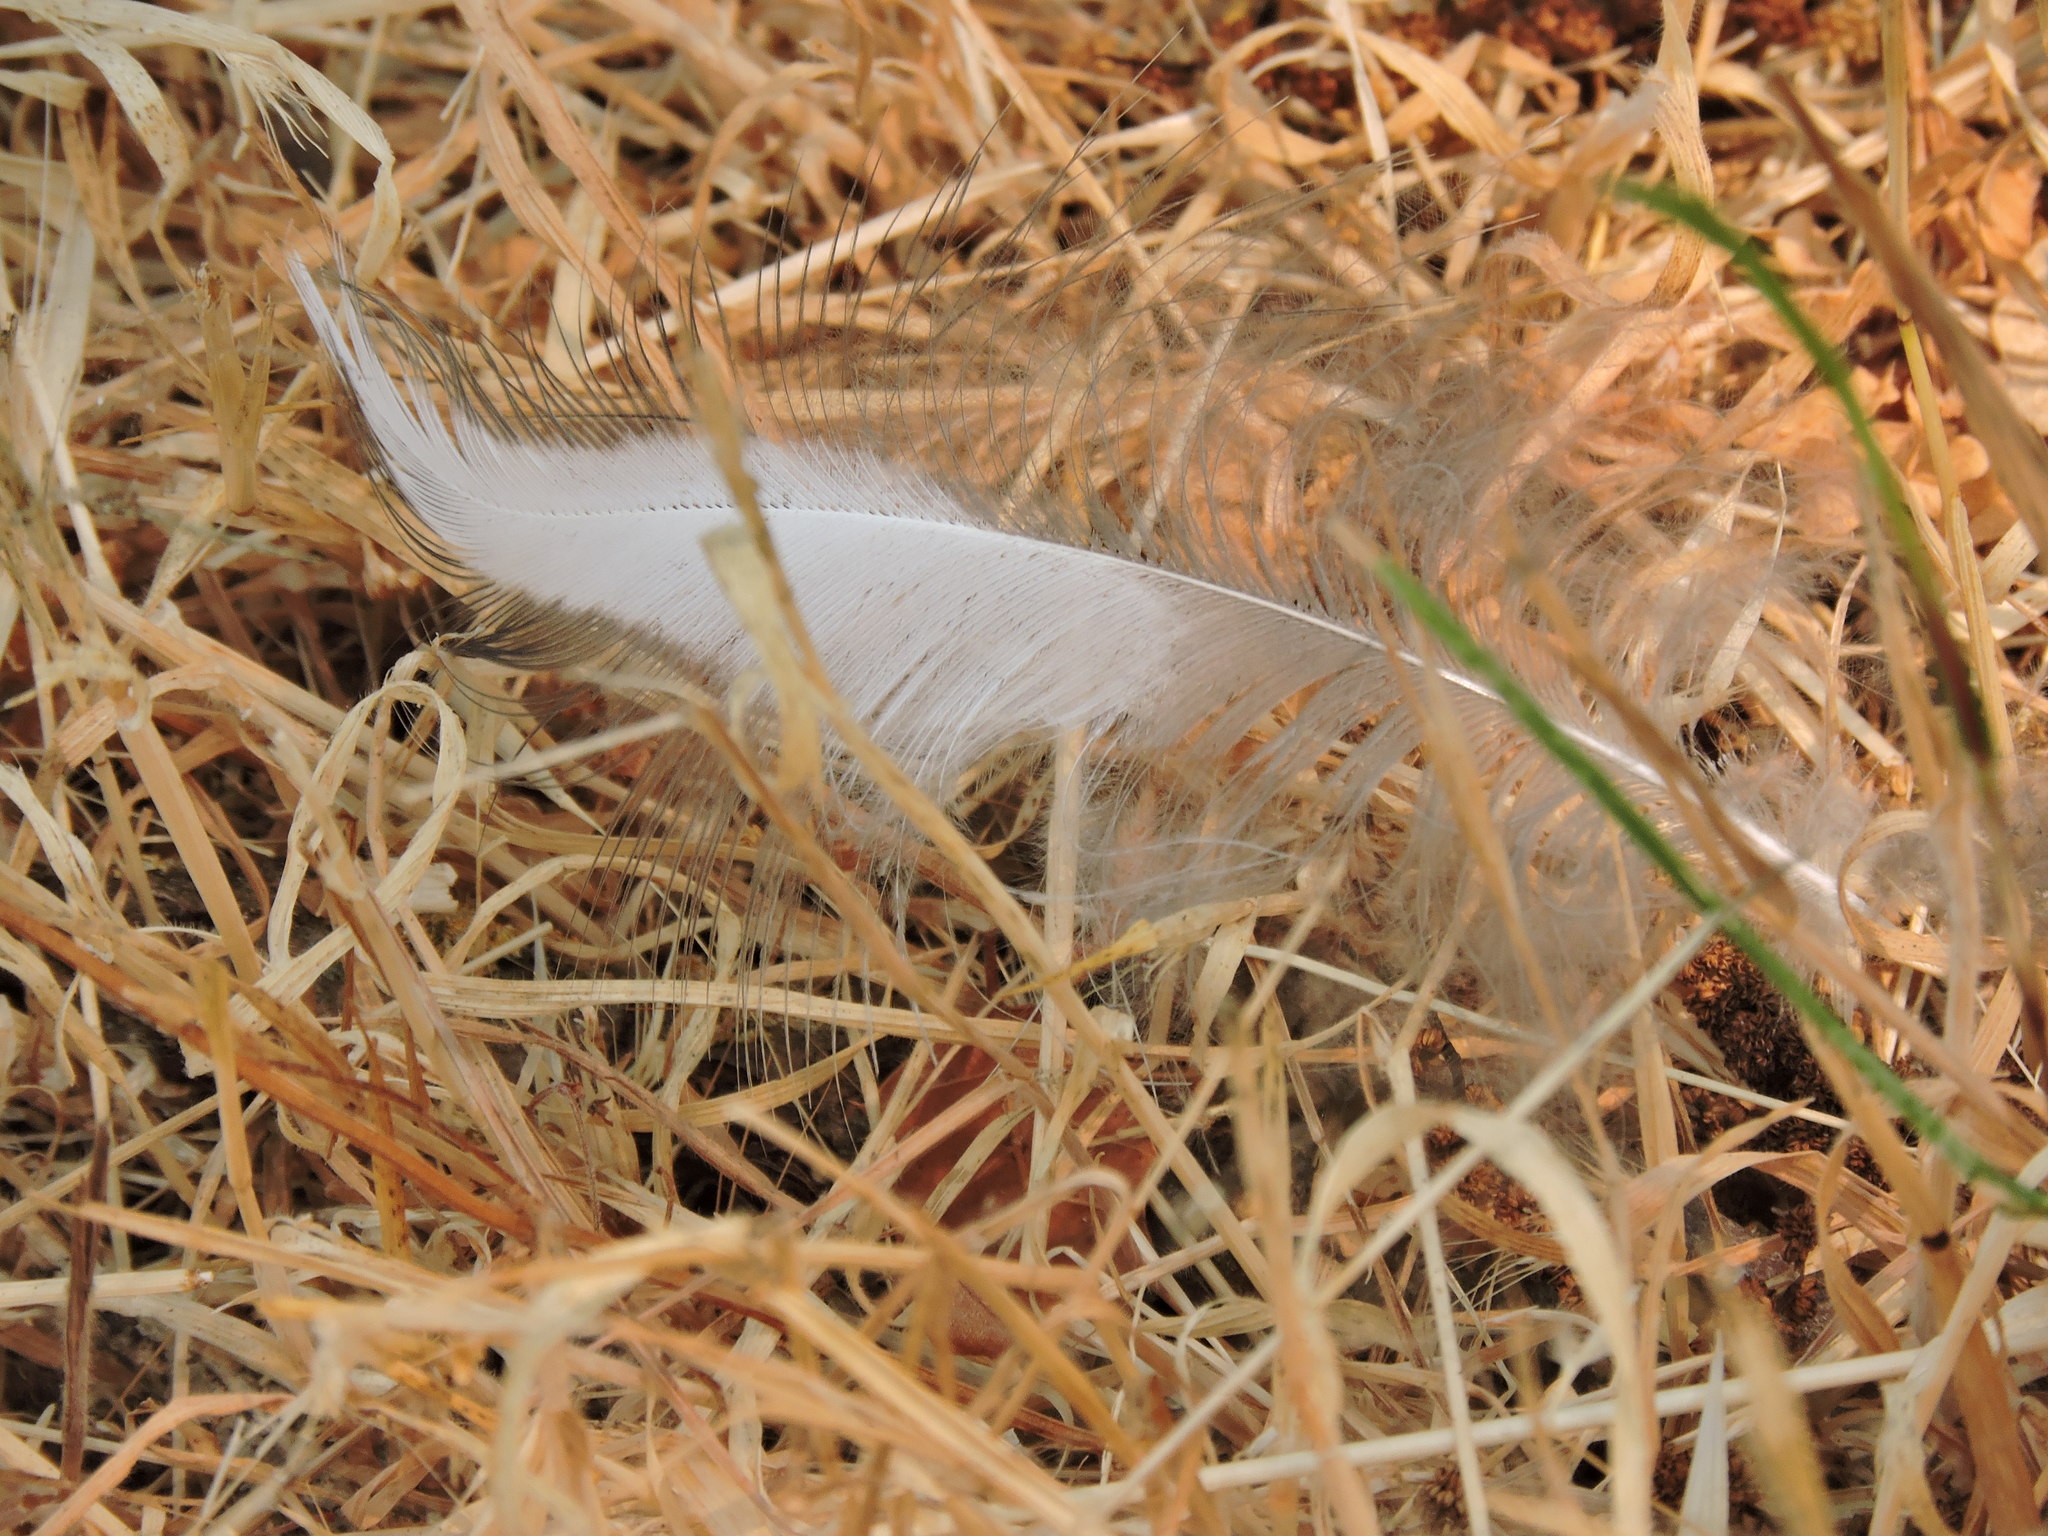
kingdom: Animalia
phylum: Chordata
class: Aves
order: Pelecaniformes
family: Ardeidae
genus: Ardea
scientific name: Ardea herodias
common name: Great blue heron
